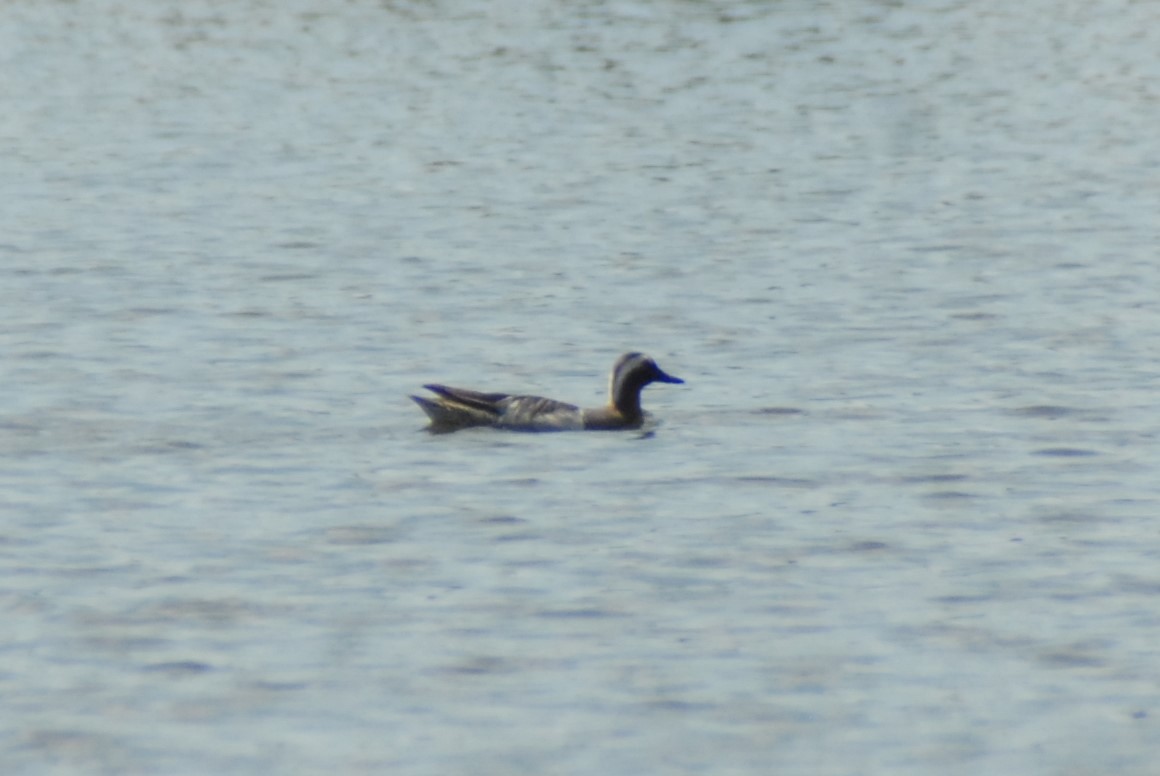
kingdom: Animalia
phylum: Chordata
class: Aves
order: Anseriformes
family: Anatidae
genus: Spatula
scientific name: Spatula querquedula
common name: Garganey
